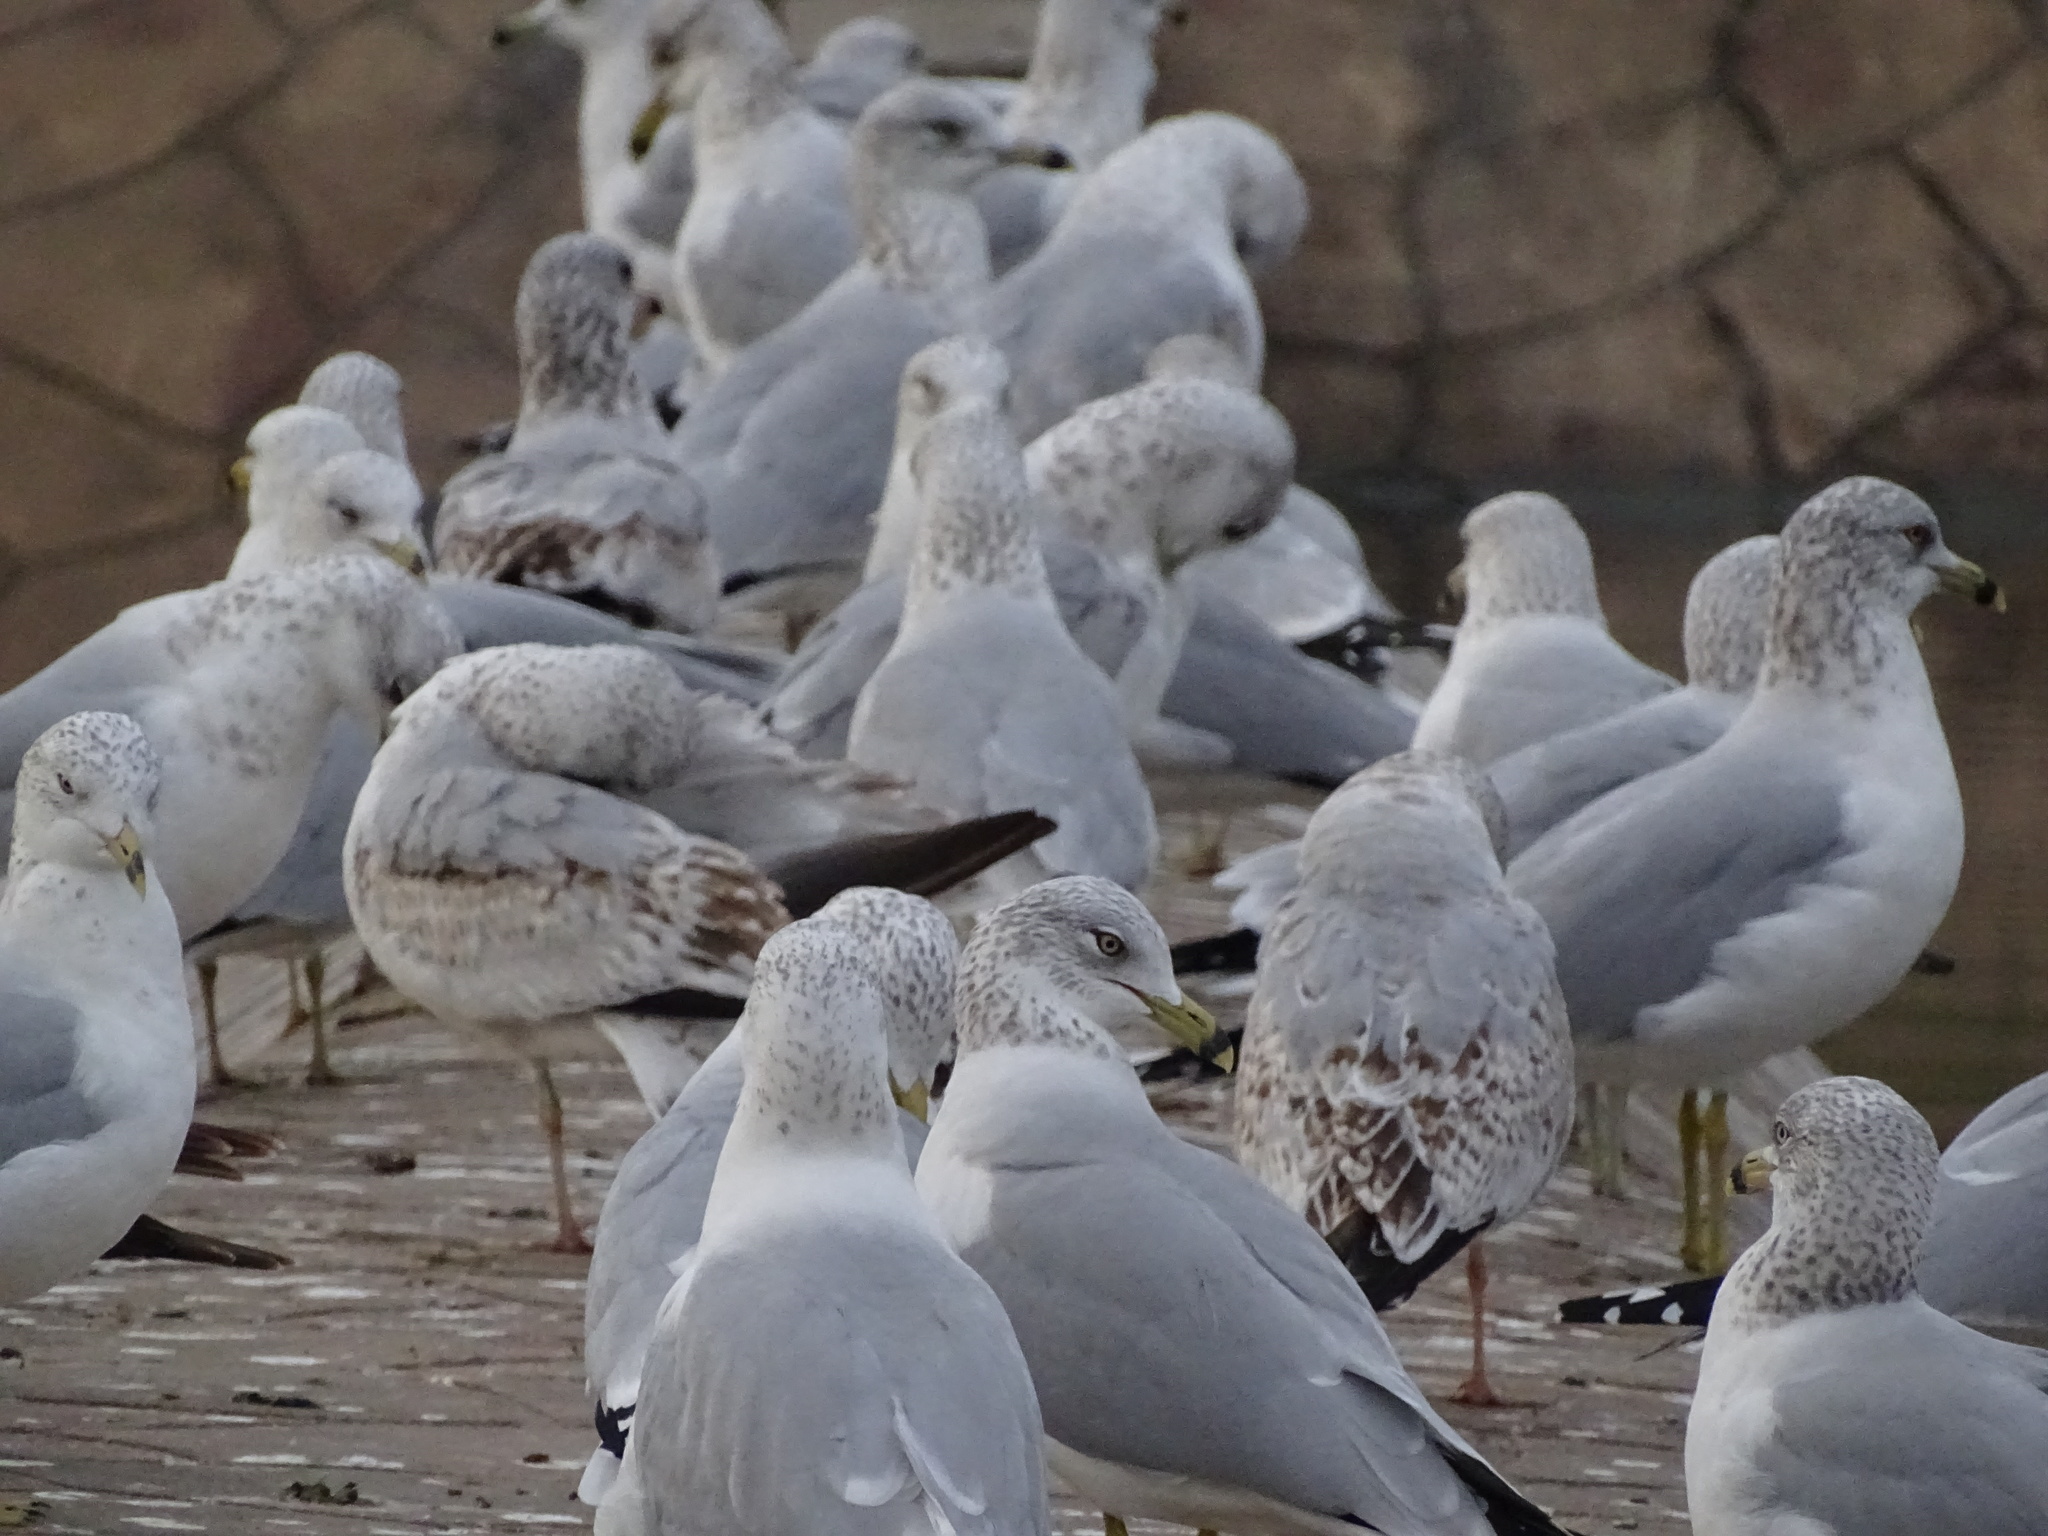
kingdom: Animalia
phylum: Chordata
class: Aves
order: Charadriiformes
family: Laridae
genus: Larus
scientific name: Larus delawarensis
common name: Ring-billed gull
